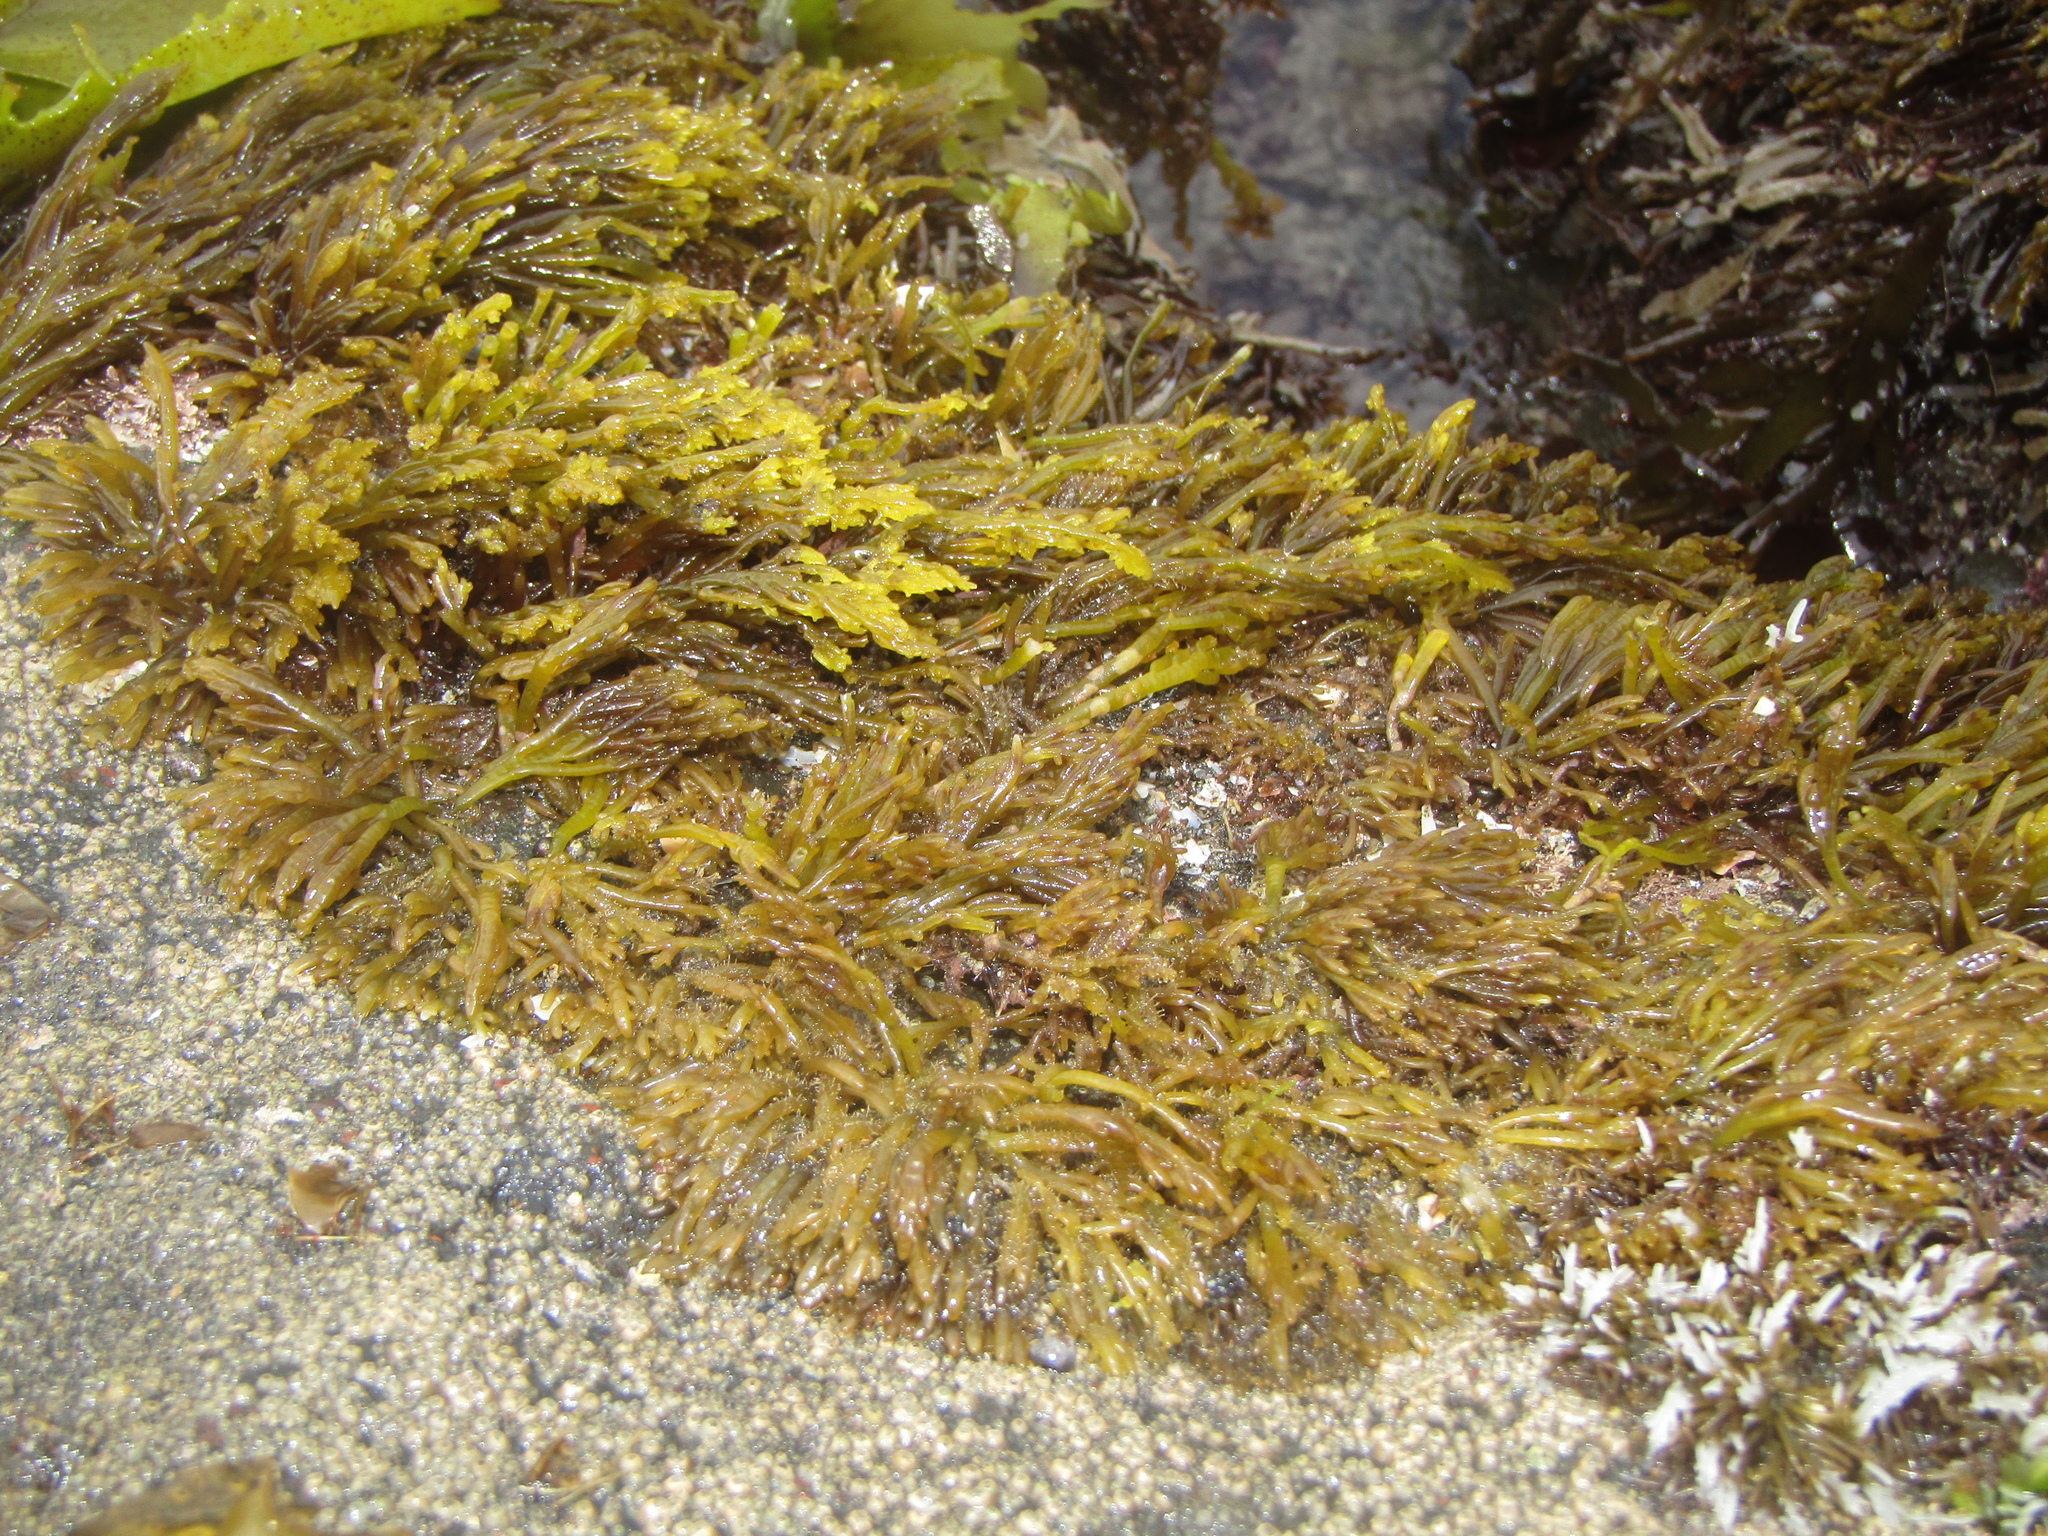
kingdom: Plantae
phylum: Rhodophyta
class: Florideophyceae
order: Rhodymeniales
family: Champiaceae
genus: Champia
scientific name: Champia novae-zelandiae
